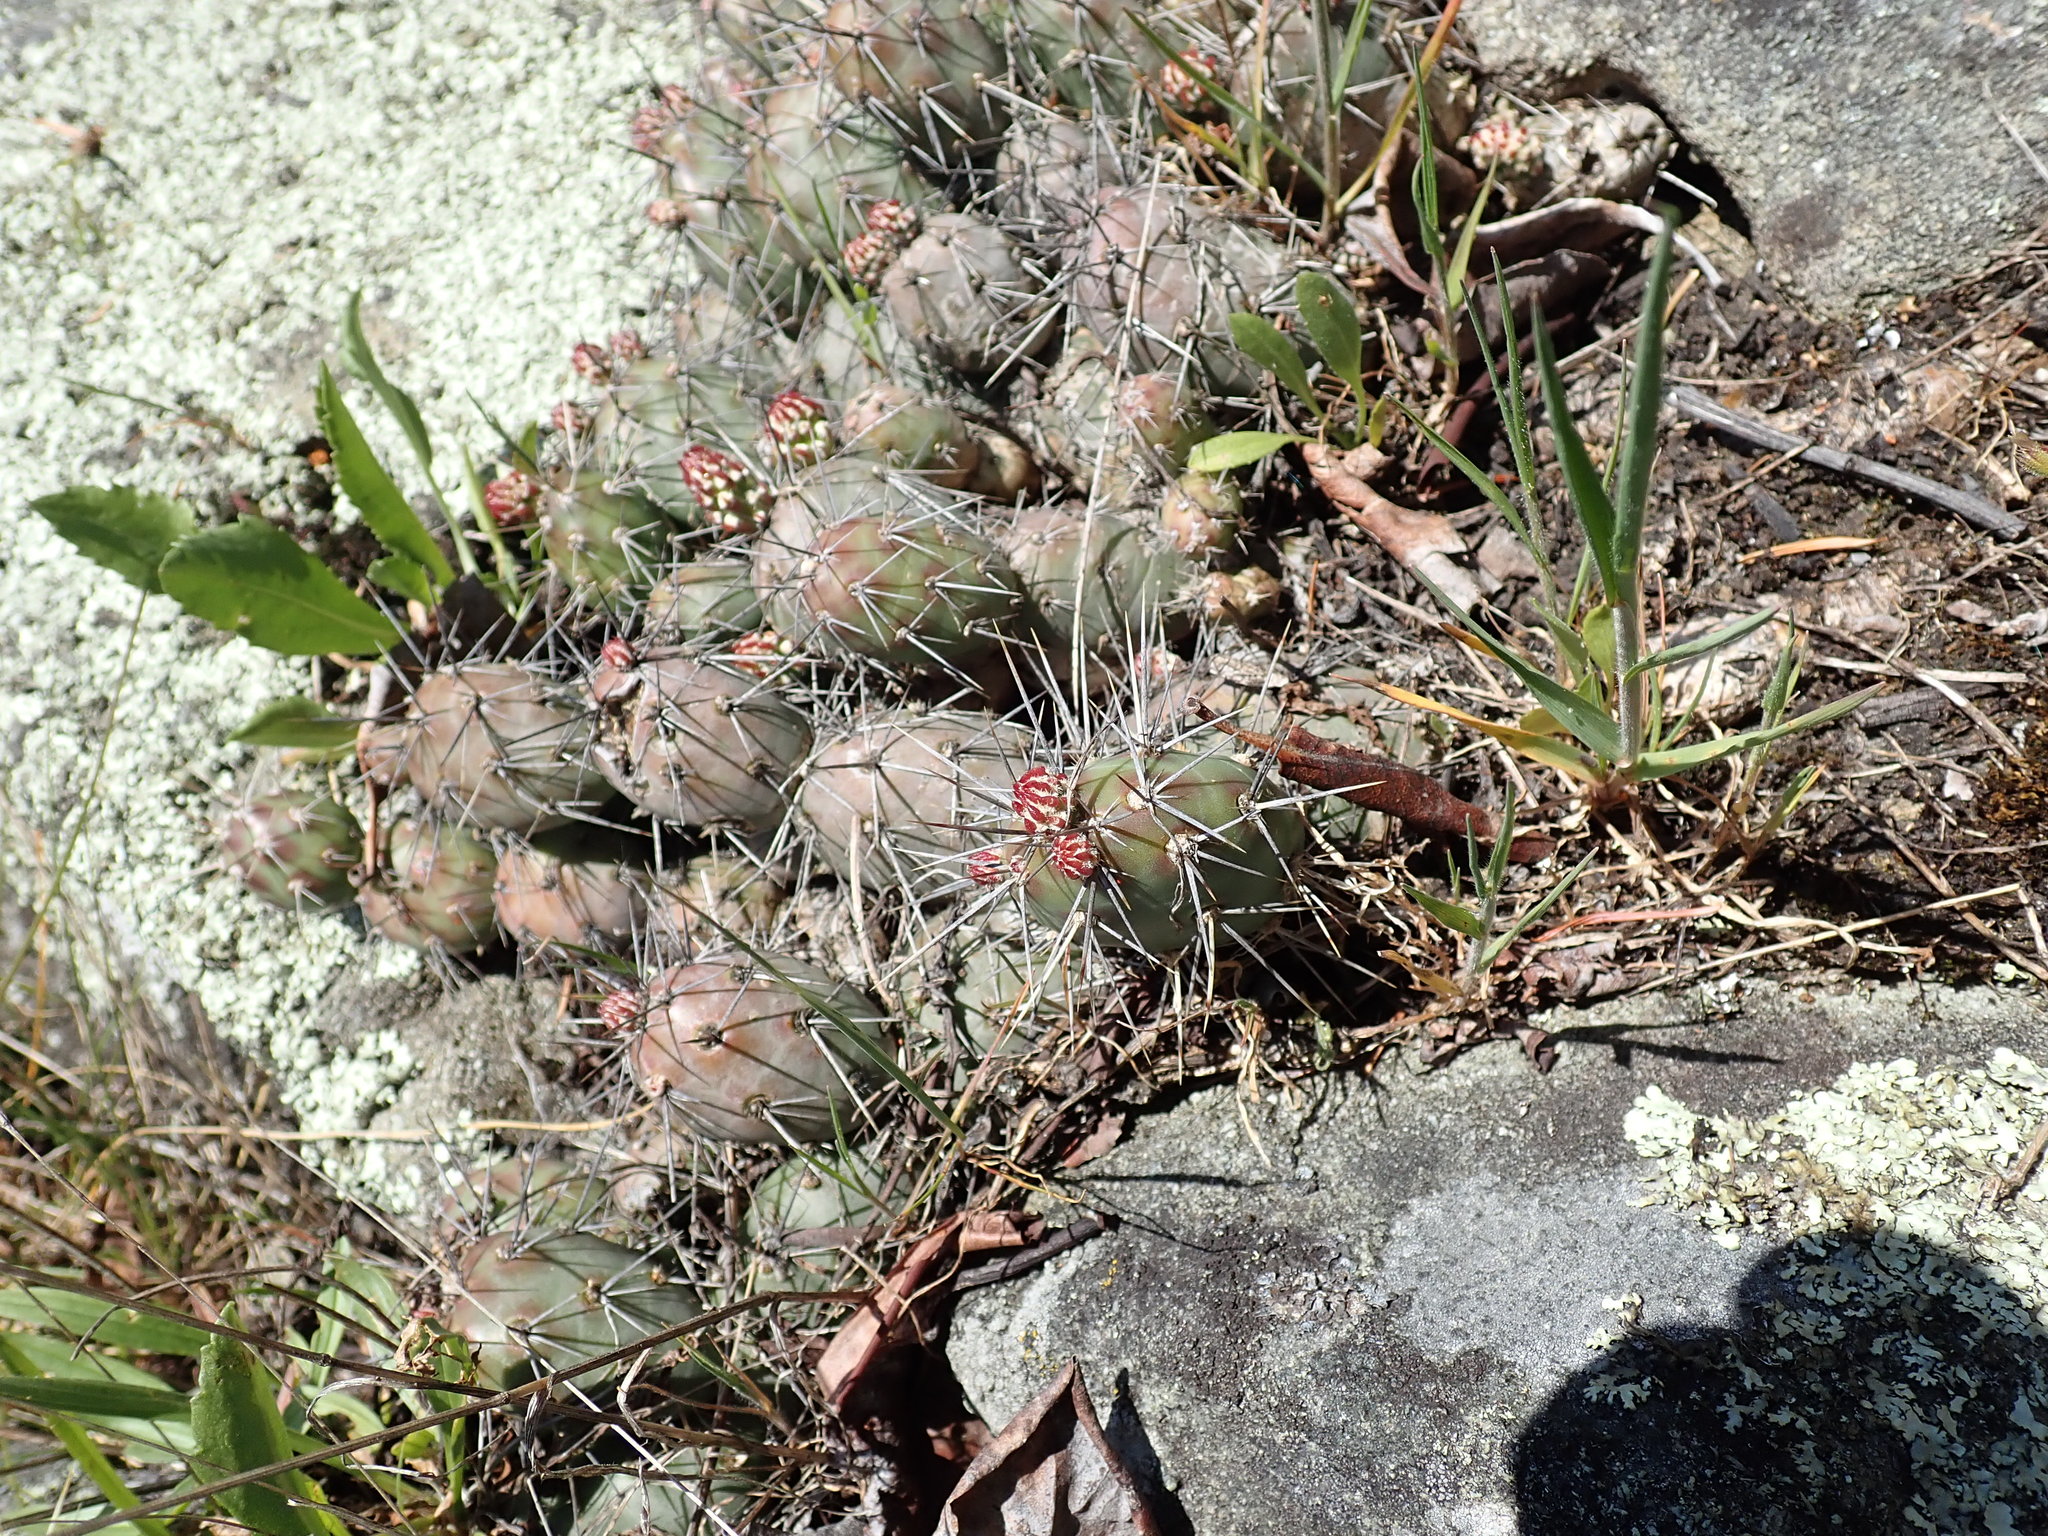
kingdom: Plantae
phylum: Tracheophyta
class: Magnoliopsida
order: Caryophyllales
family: Cactaceae
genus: Opuntia
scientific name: Opuntia fragilis
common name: Brittle cactus
